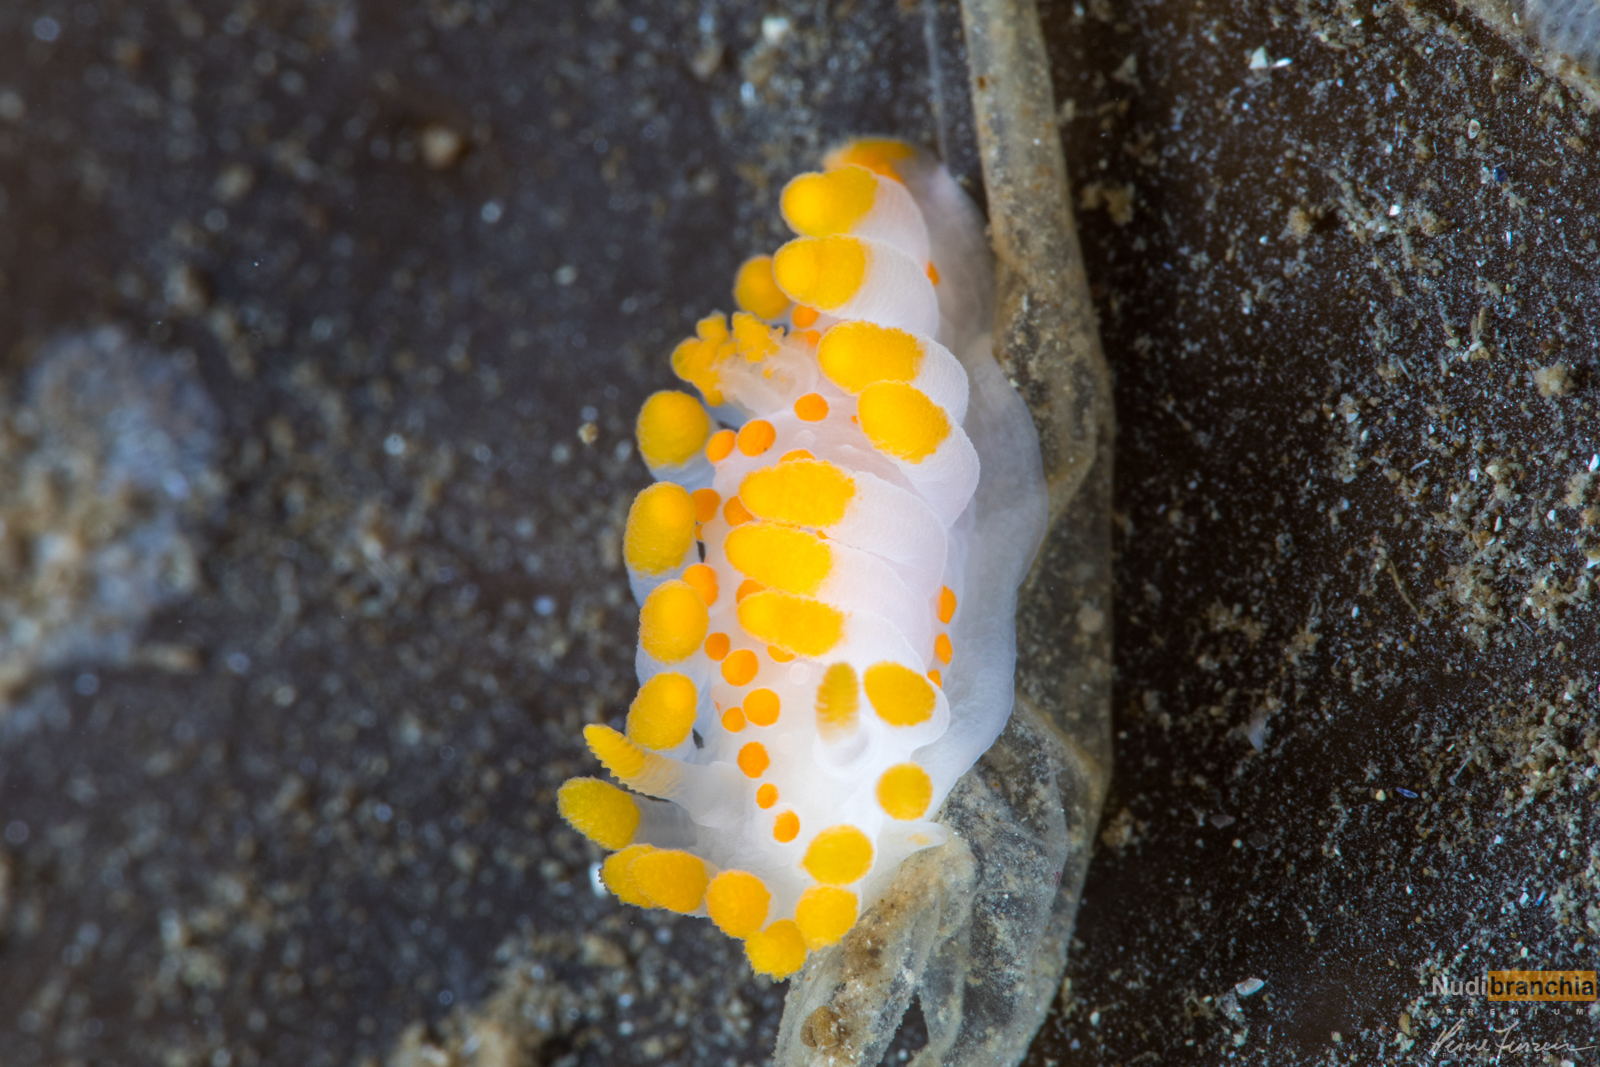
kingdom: Animalia
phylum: Mollusca
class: Gastropoda
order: Nudibranchia
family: Polyceridae
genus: Limacia
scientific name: Limacia clavigera
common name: Orange-clubbed sea slug
